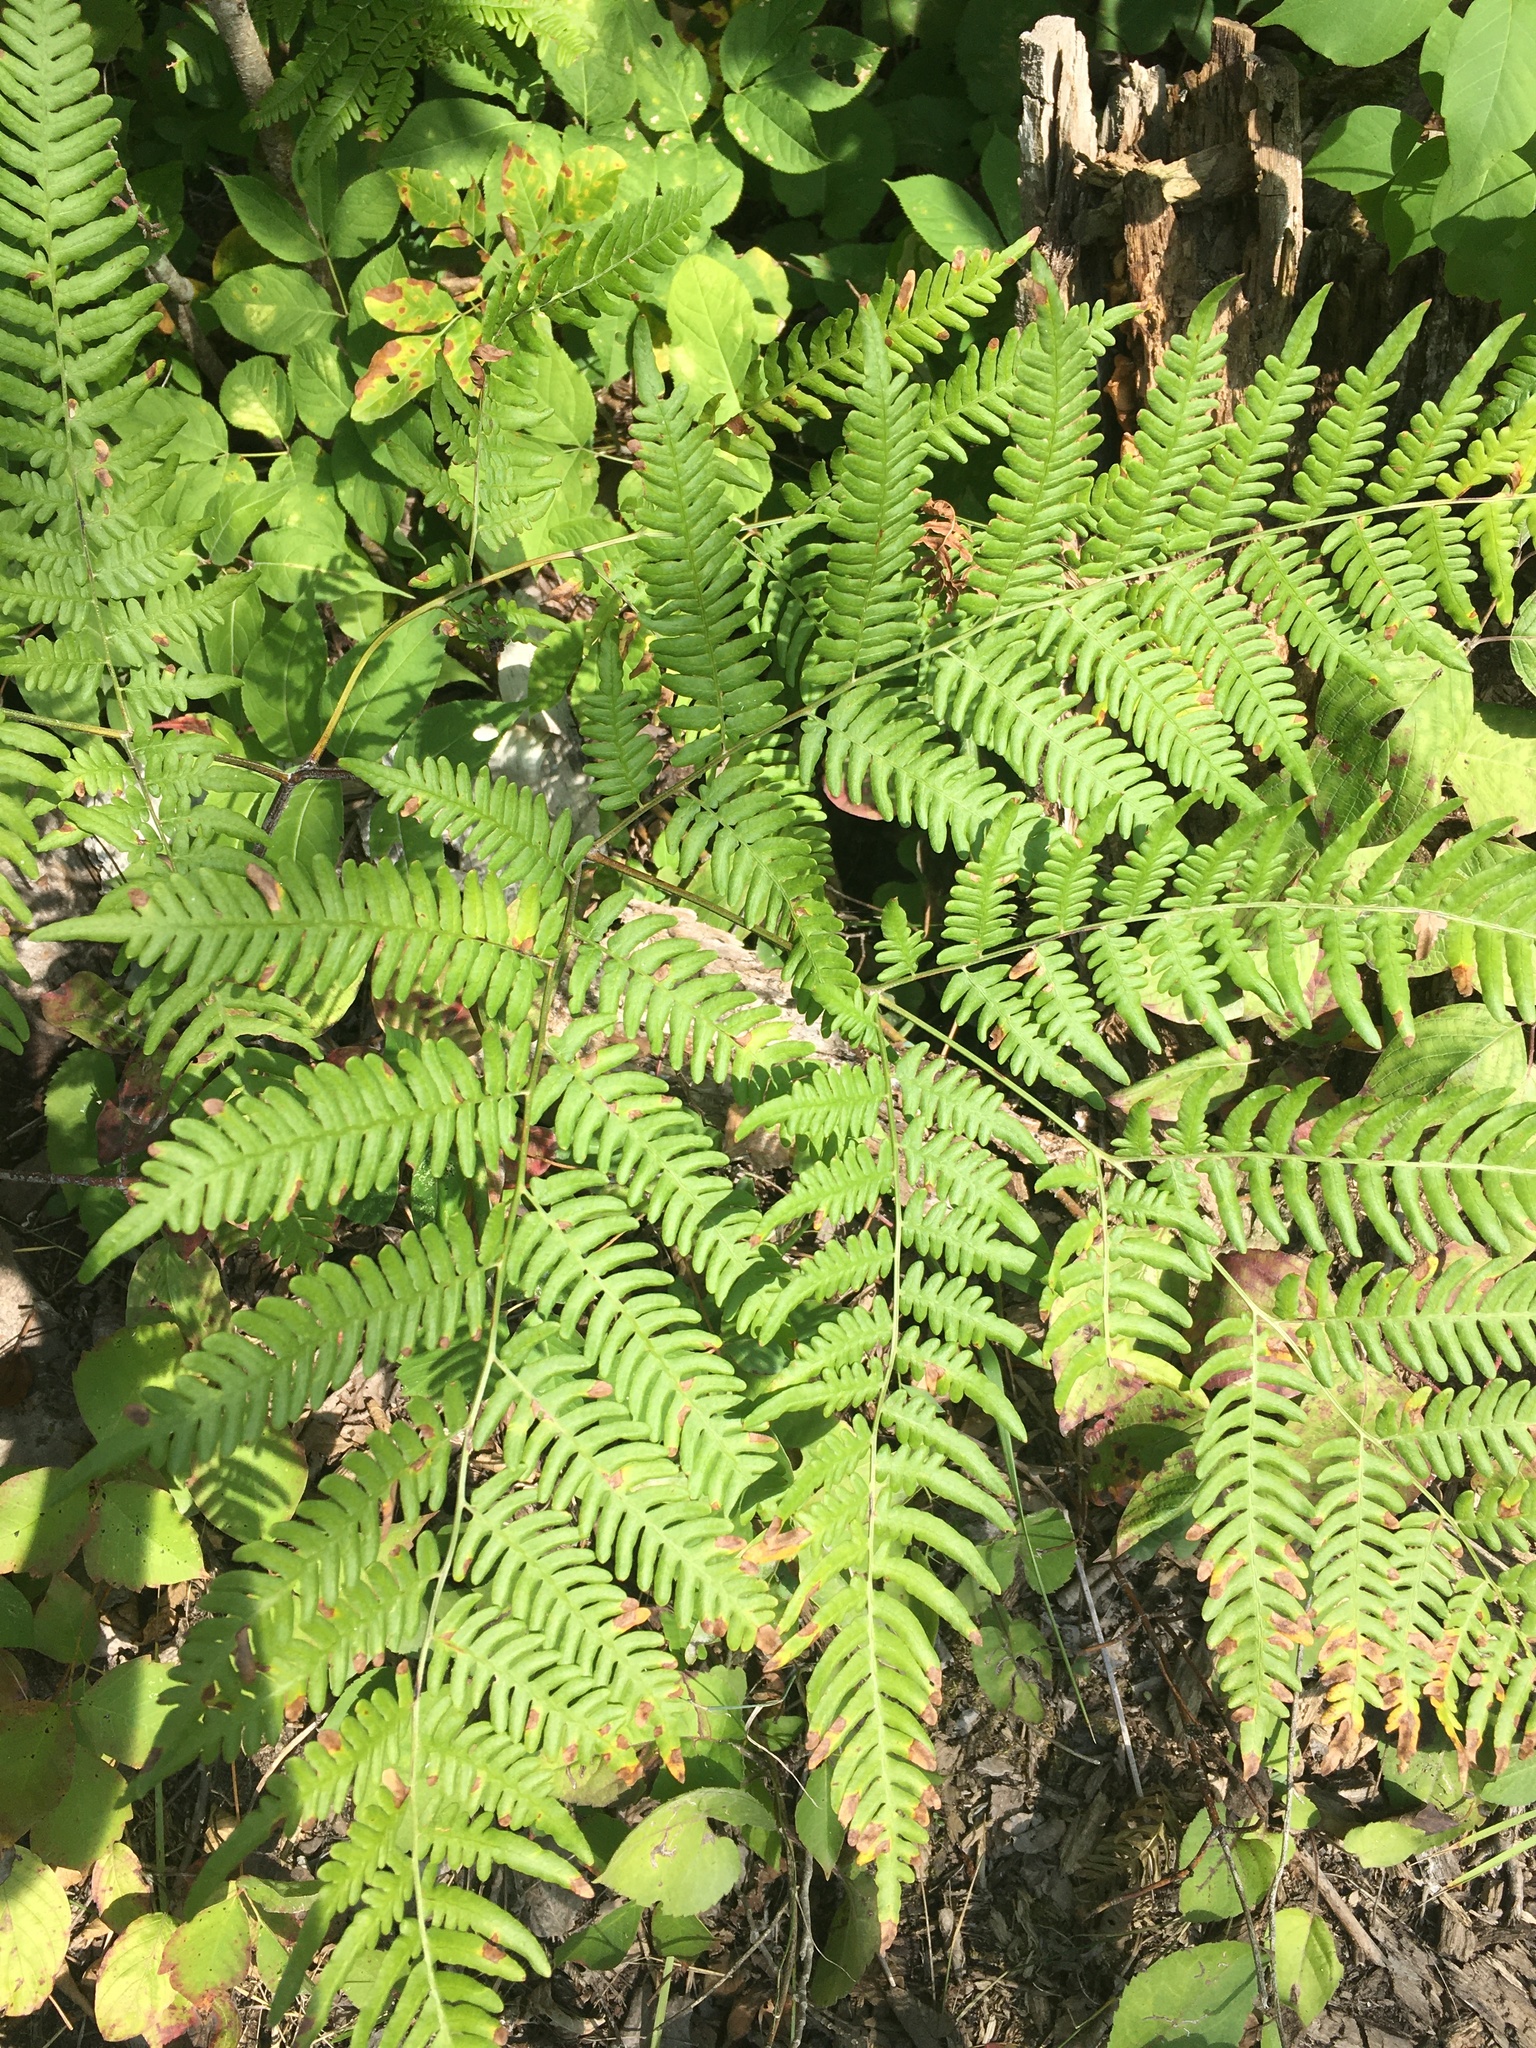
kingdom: Plantae
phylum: Tracheophyta
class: Polypodiopsida
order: Polypodiales
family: Dennstaedtiaceae
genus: Pteridium
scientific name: Pteridium aquilinum
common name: Bracken
